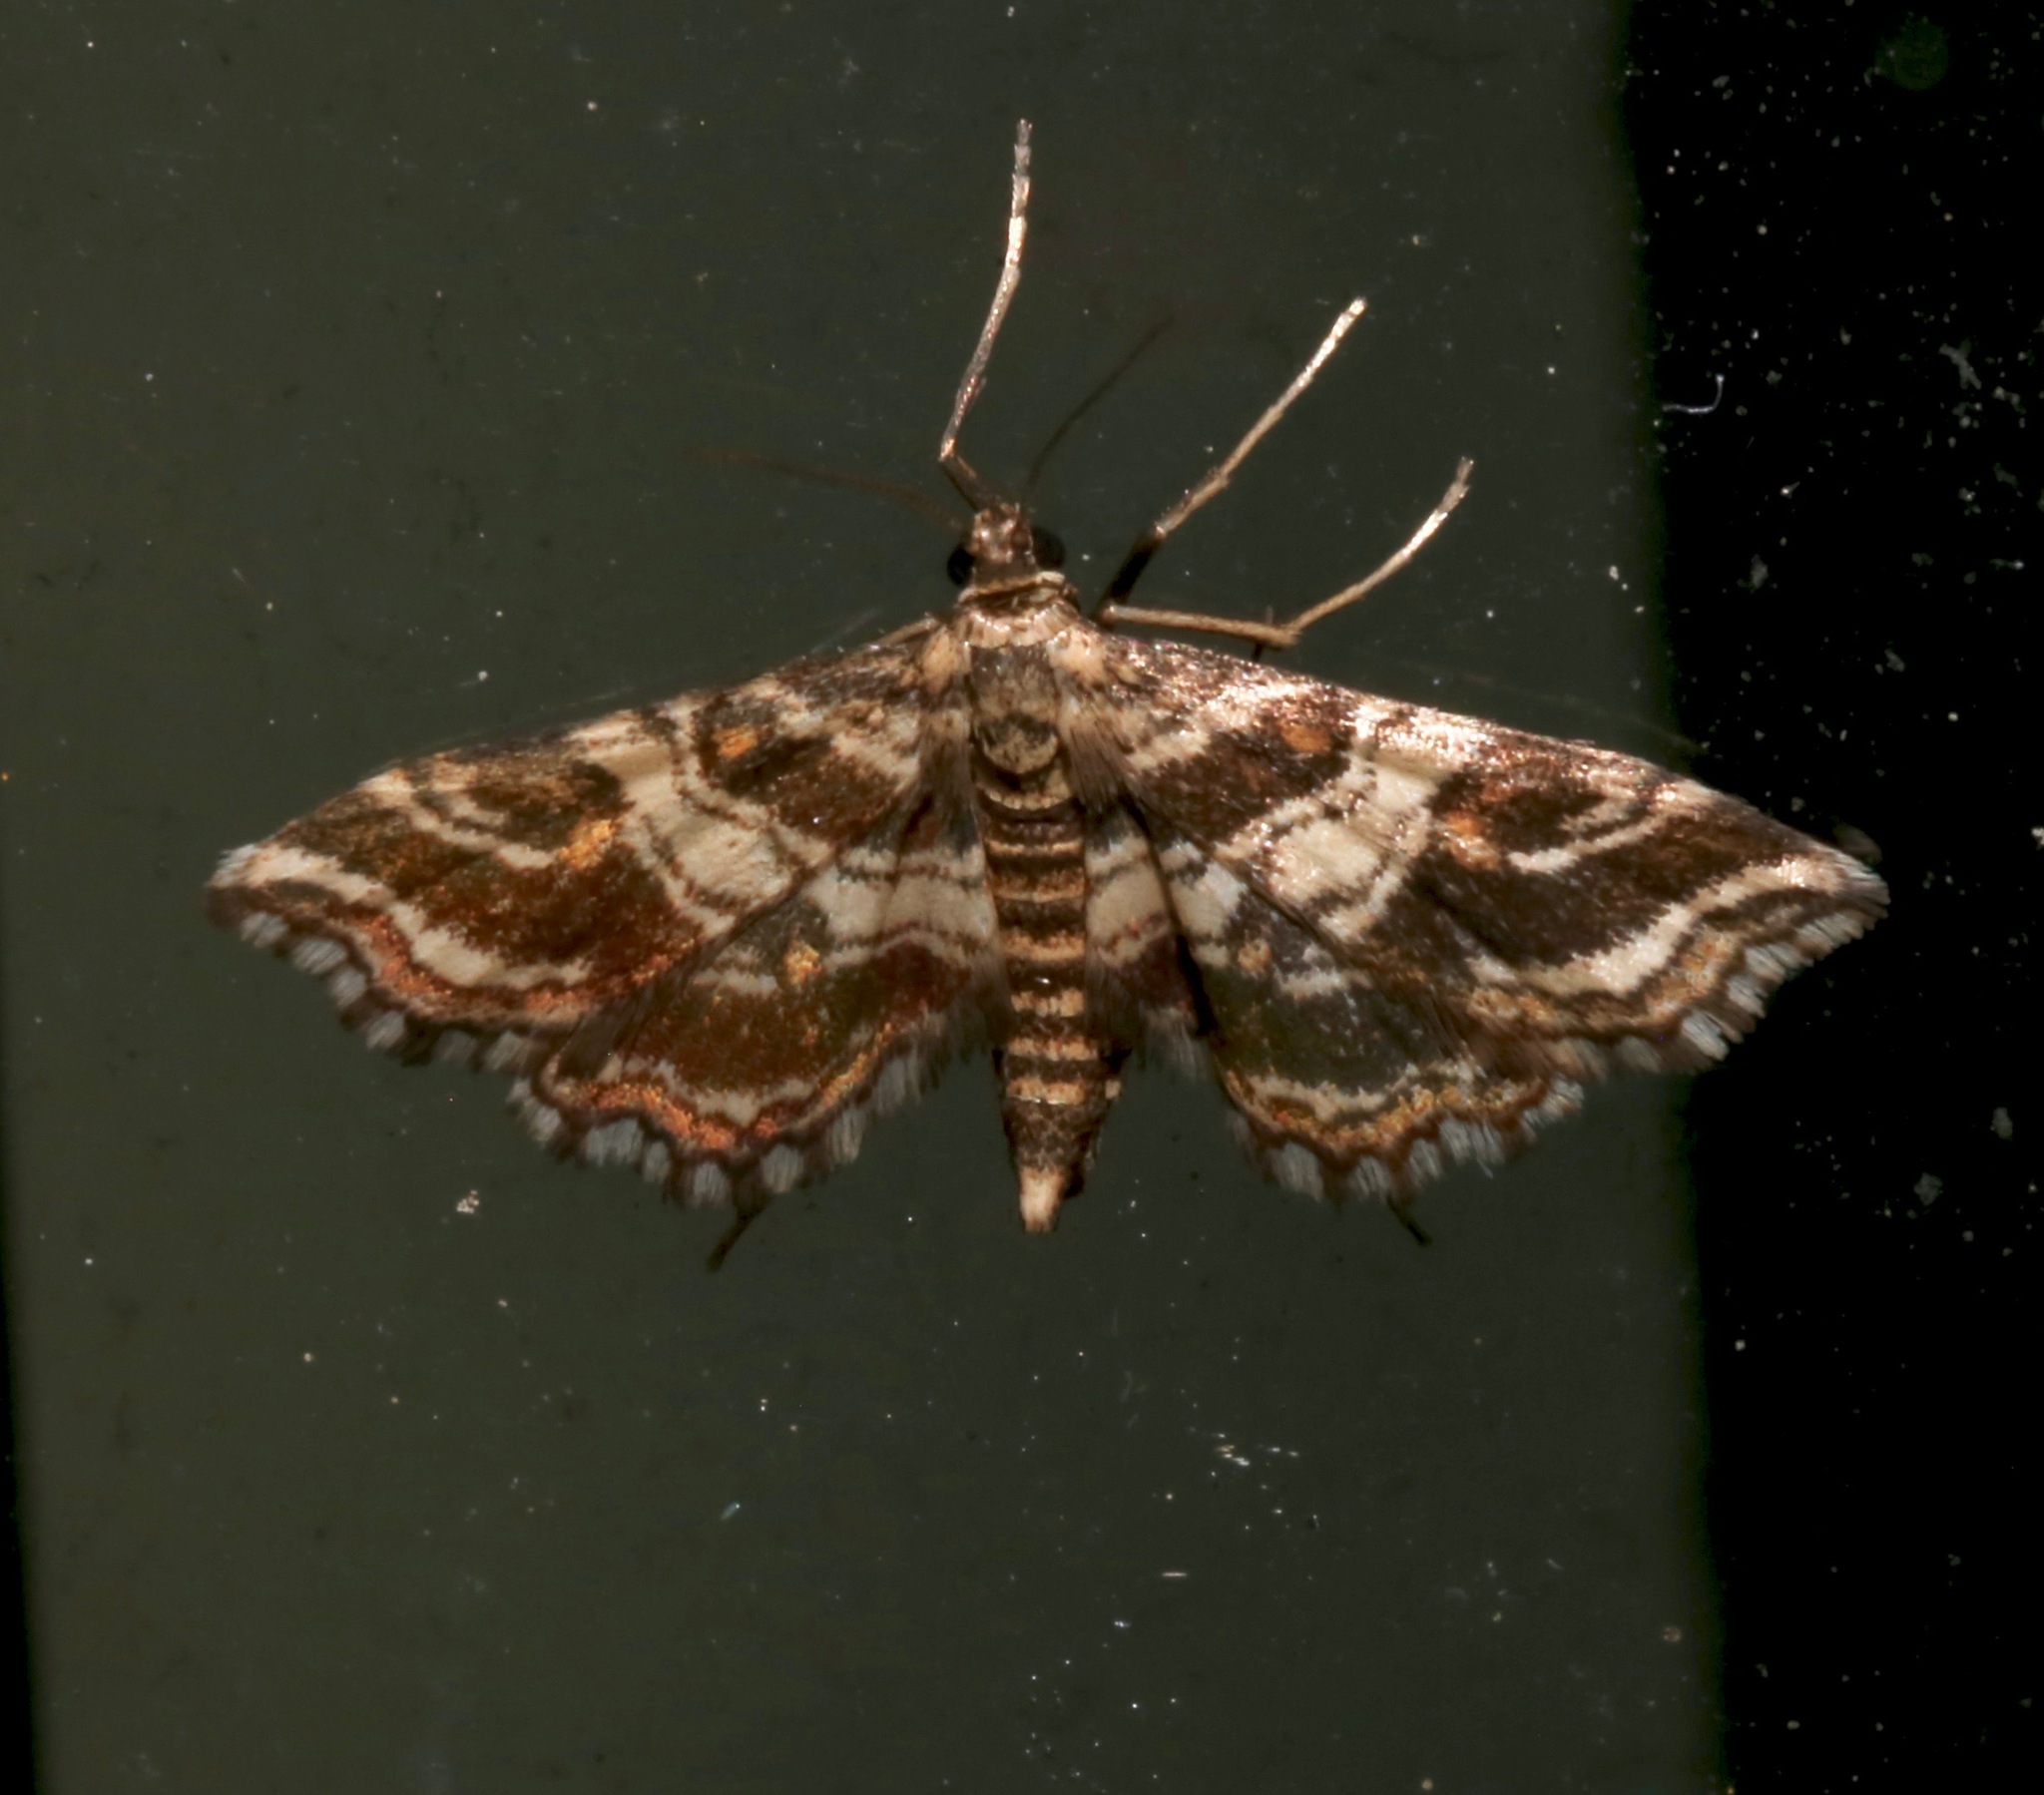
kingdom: Animalia
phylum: Arthropoda
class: Insecta
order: Lepidoptera
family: Crambidae
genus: Contiger
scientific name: Contiger vittatalis
